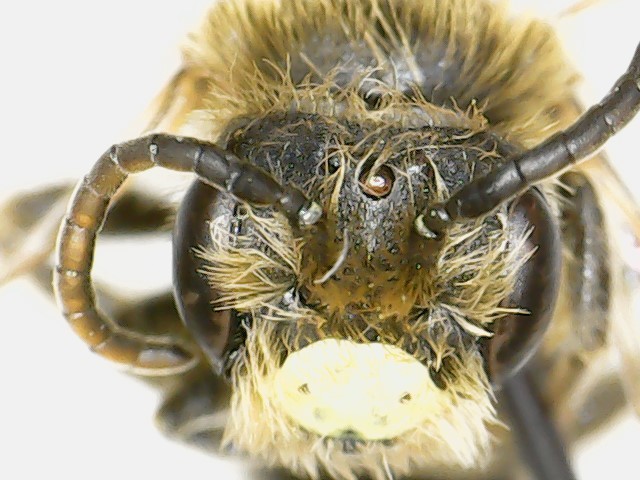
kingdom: Animalia
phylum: Arthropoda
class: Insecta
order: Hymenoptera
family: Andrenidae
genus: Andrena
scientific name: Andrena miserabilis
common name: Miserable mining bee
